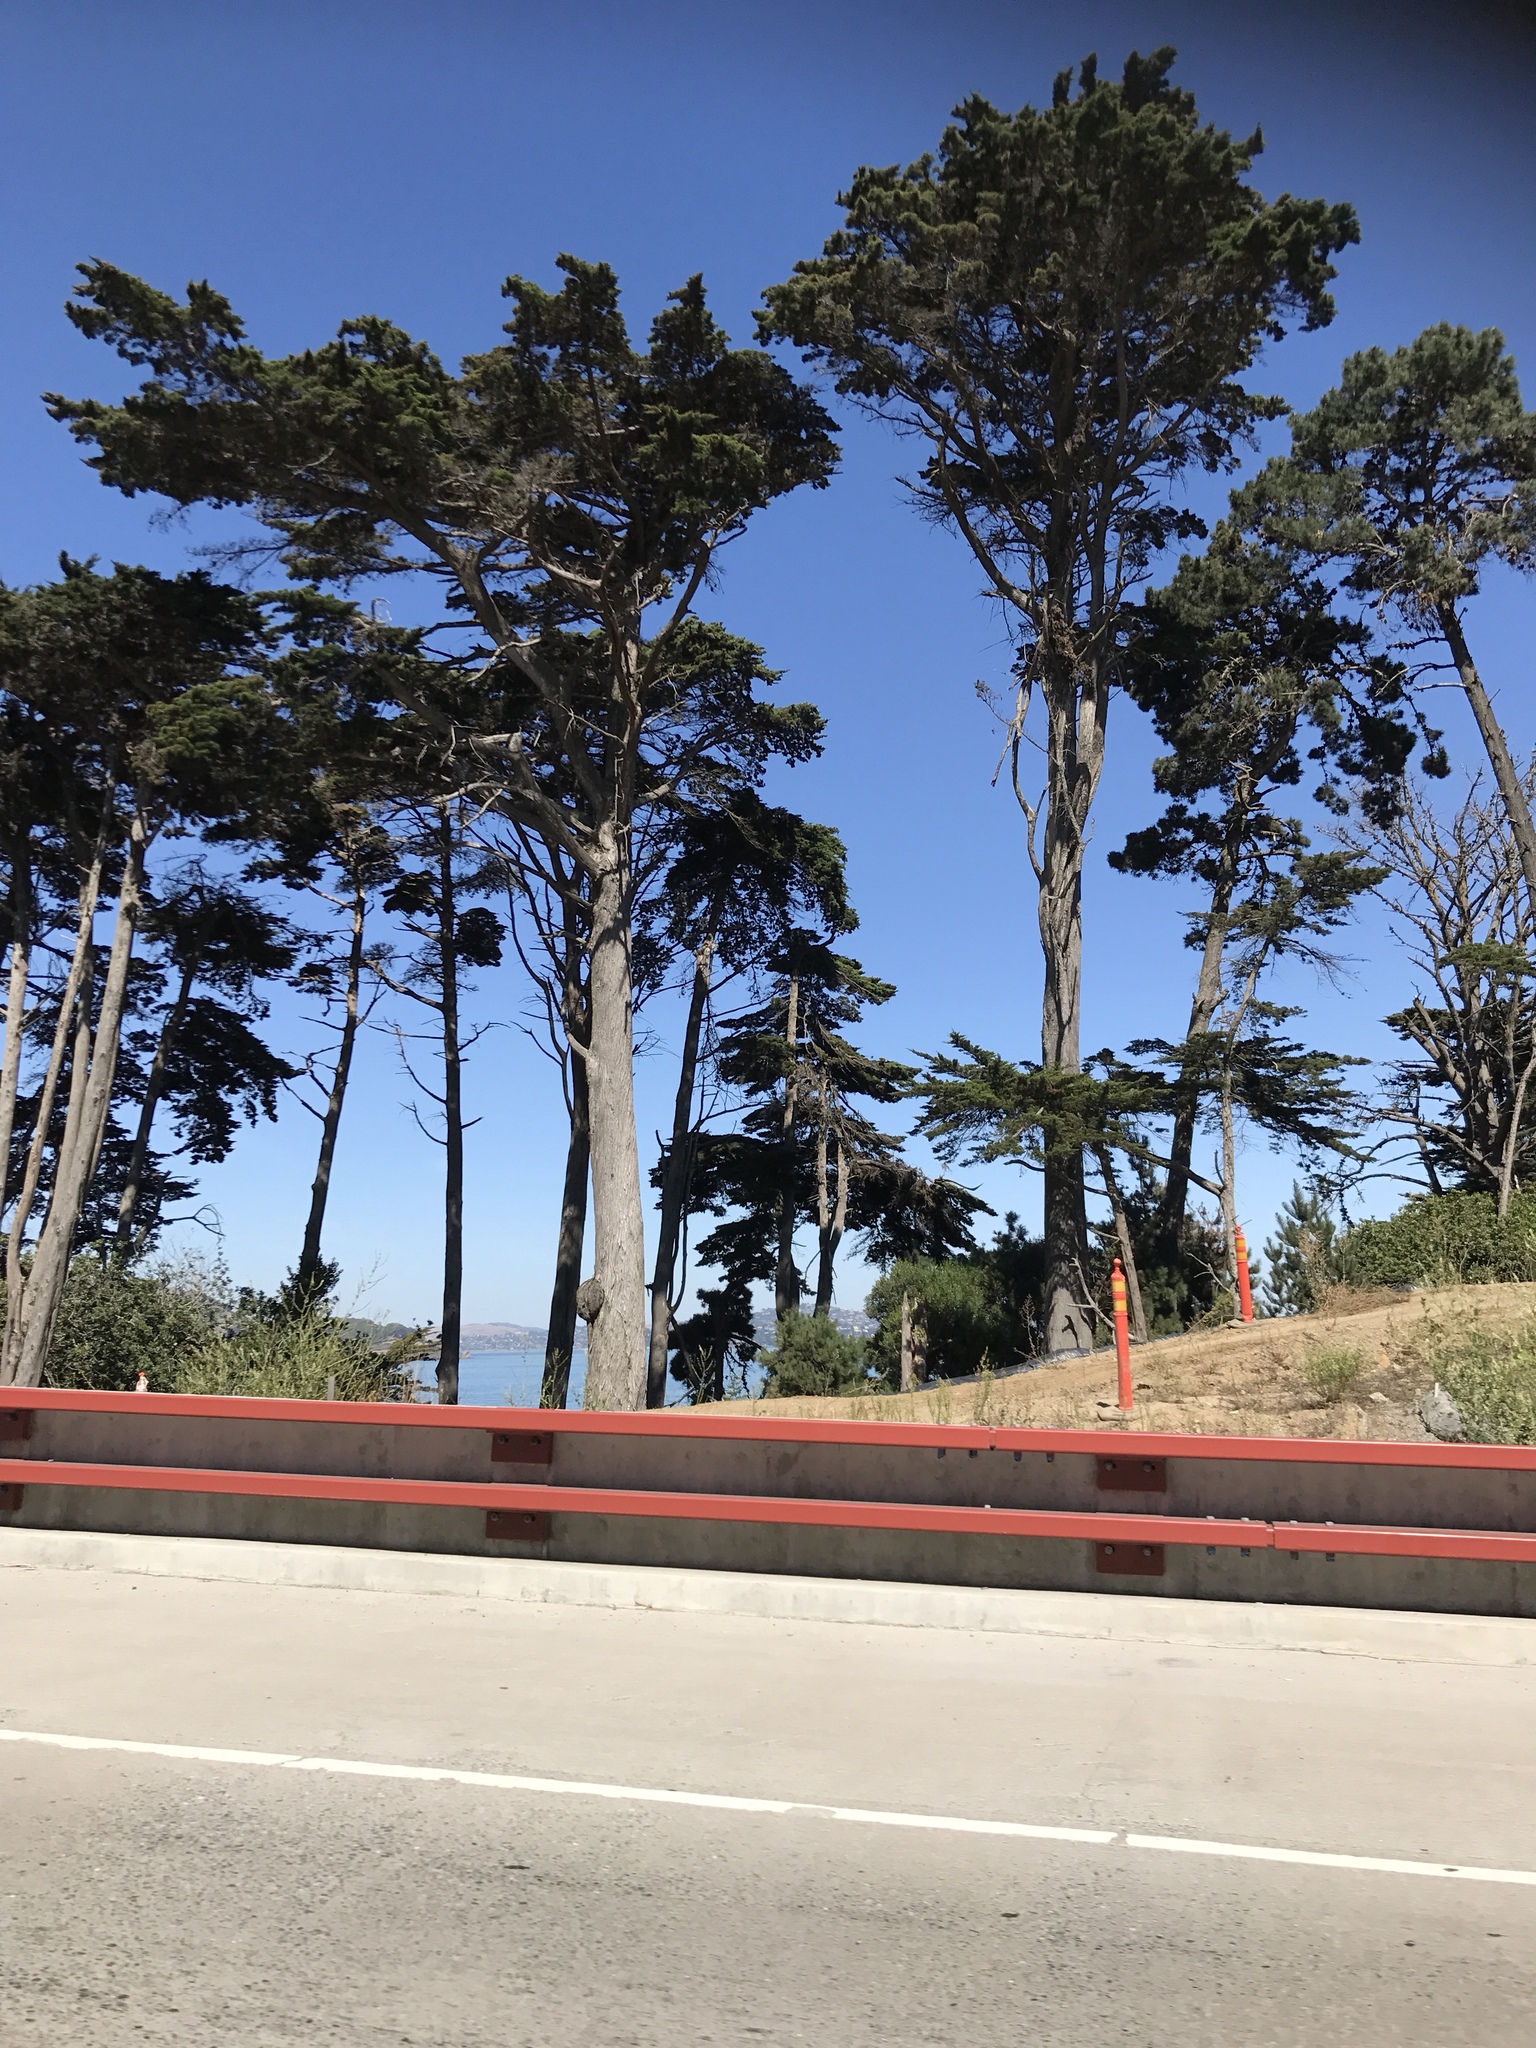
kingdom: Plantae
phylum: Tracheophyta
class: Pinopsida
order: Pinales
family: Cupressaceae
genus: Cupressus
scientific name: Cupressus macrocarpa
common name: Monterey cypress
